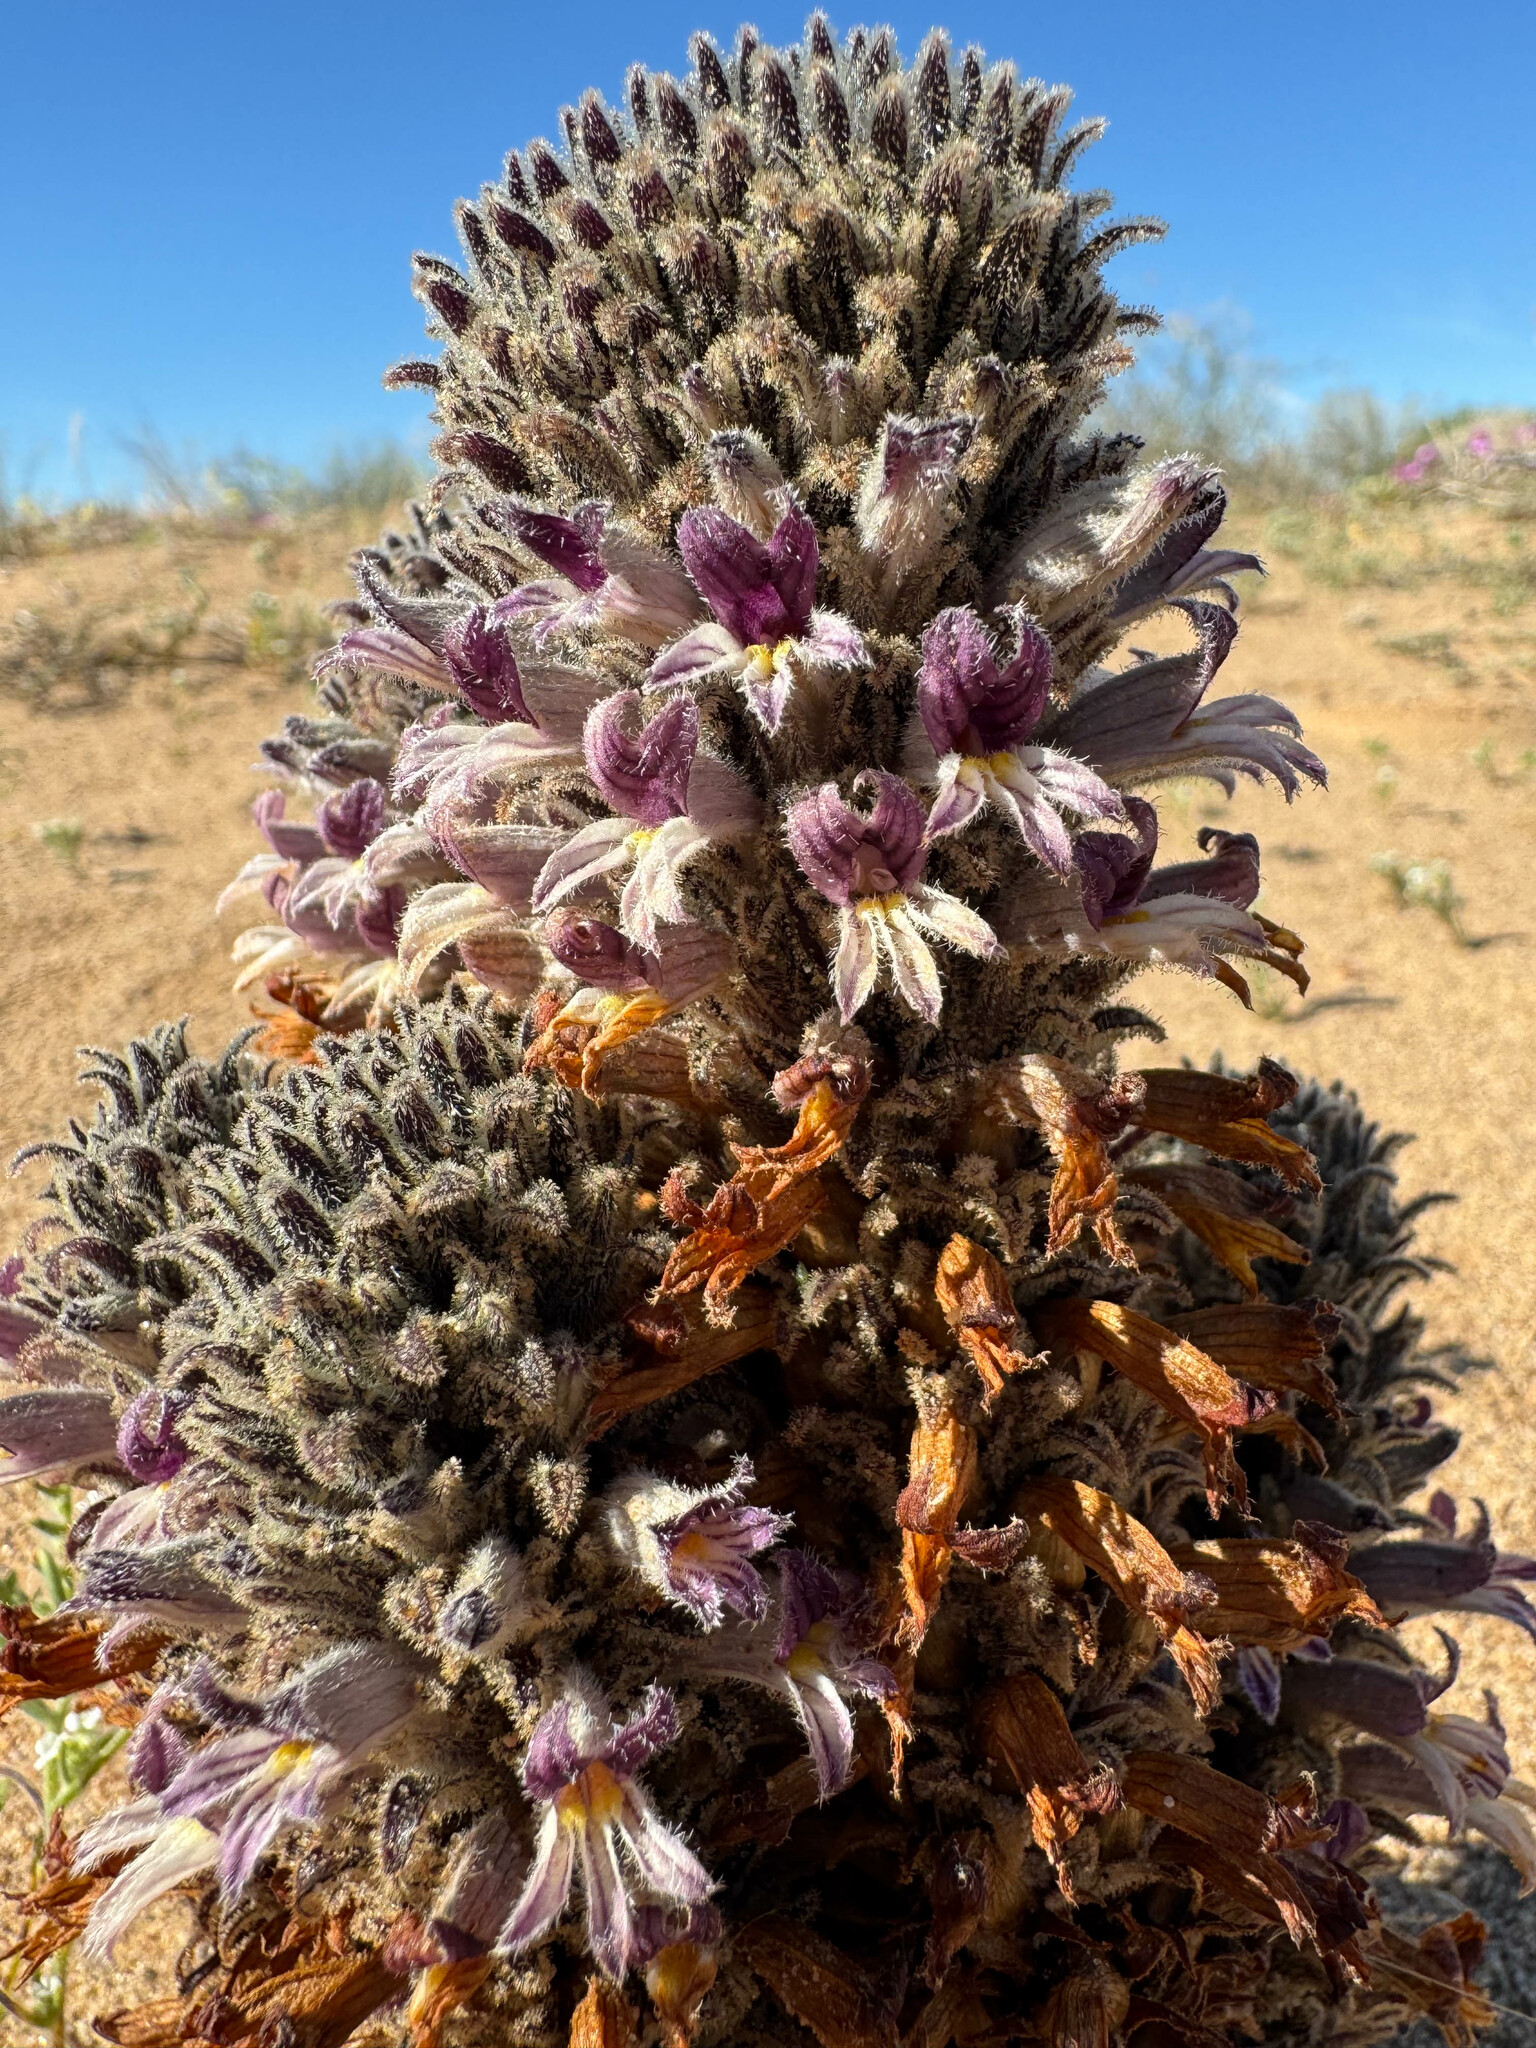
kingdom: Plantae
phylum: Tracheophyta
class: Magnoliopsida
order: Lamiales
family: Orobanchaceae
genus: Aphyllon
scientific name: Aphyllon cooperi
